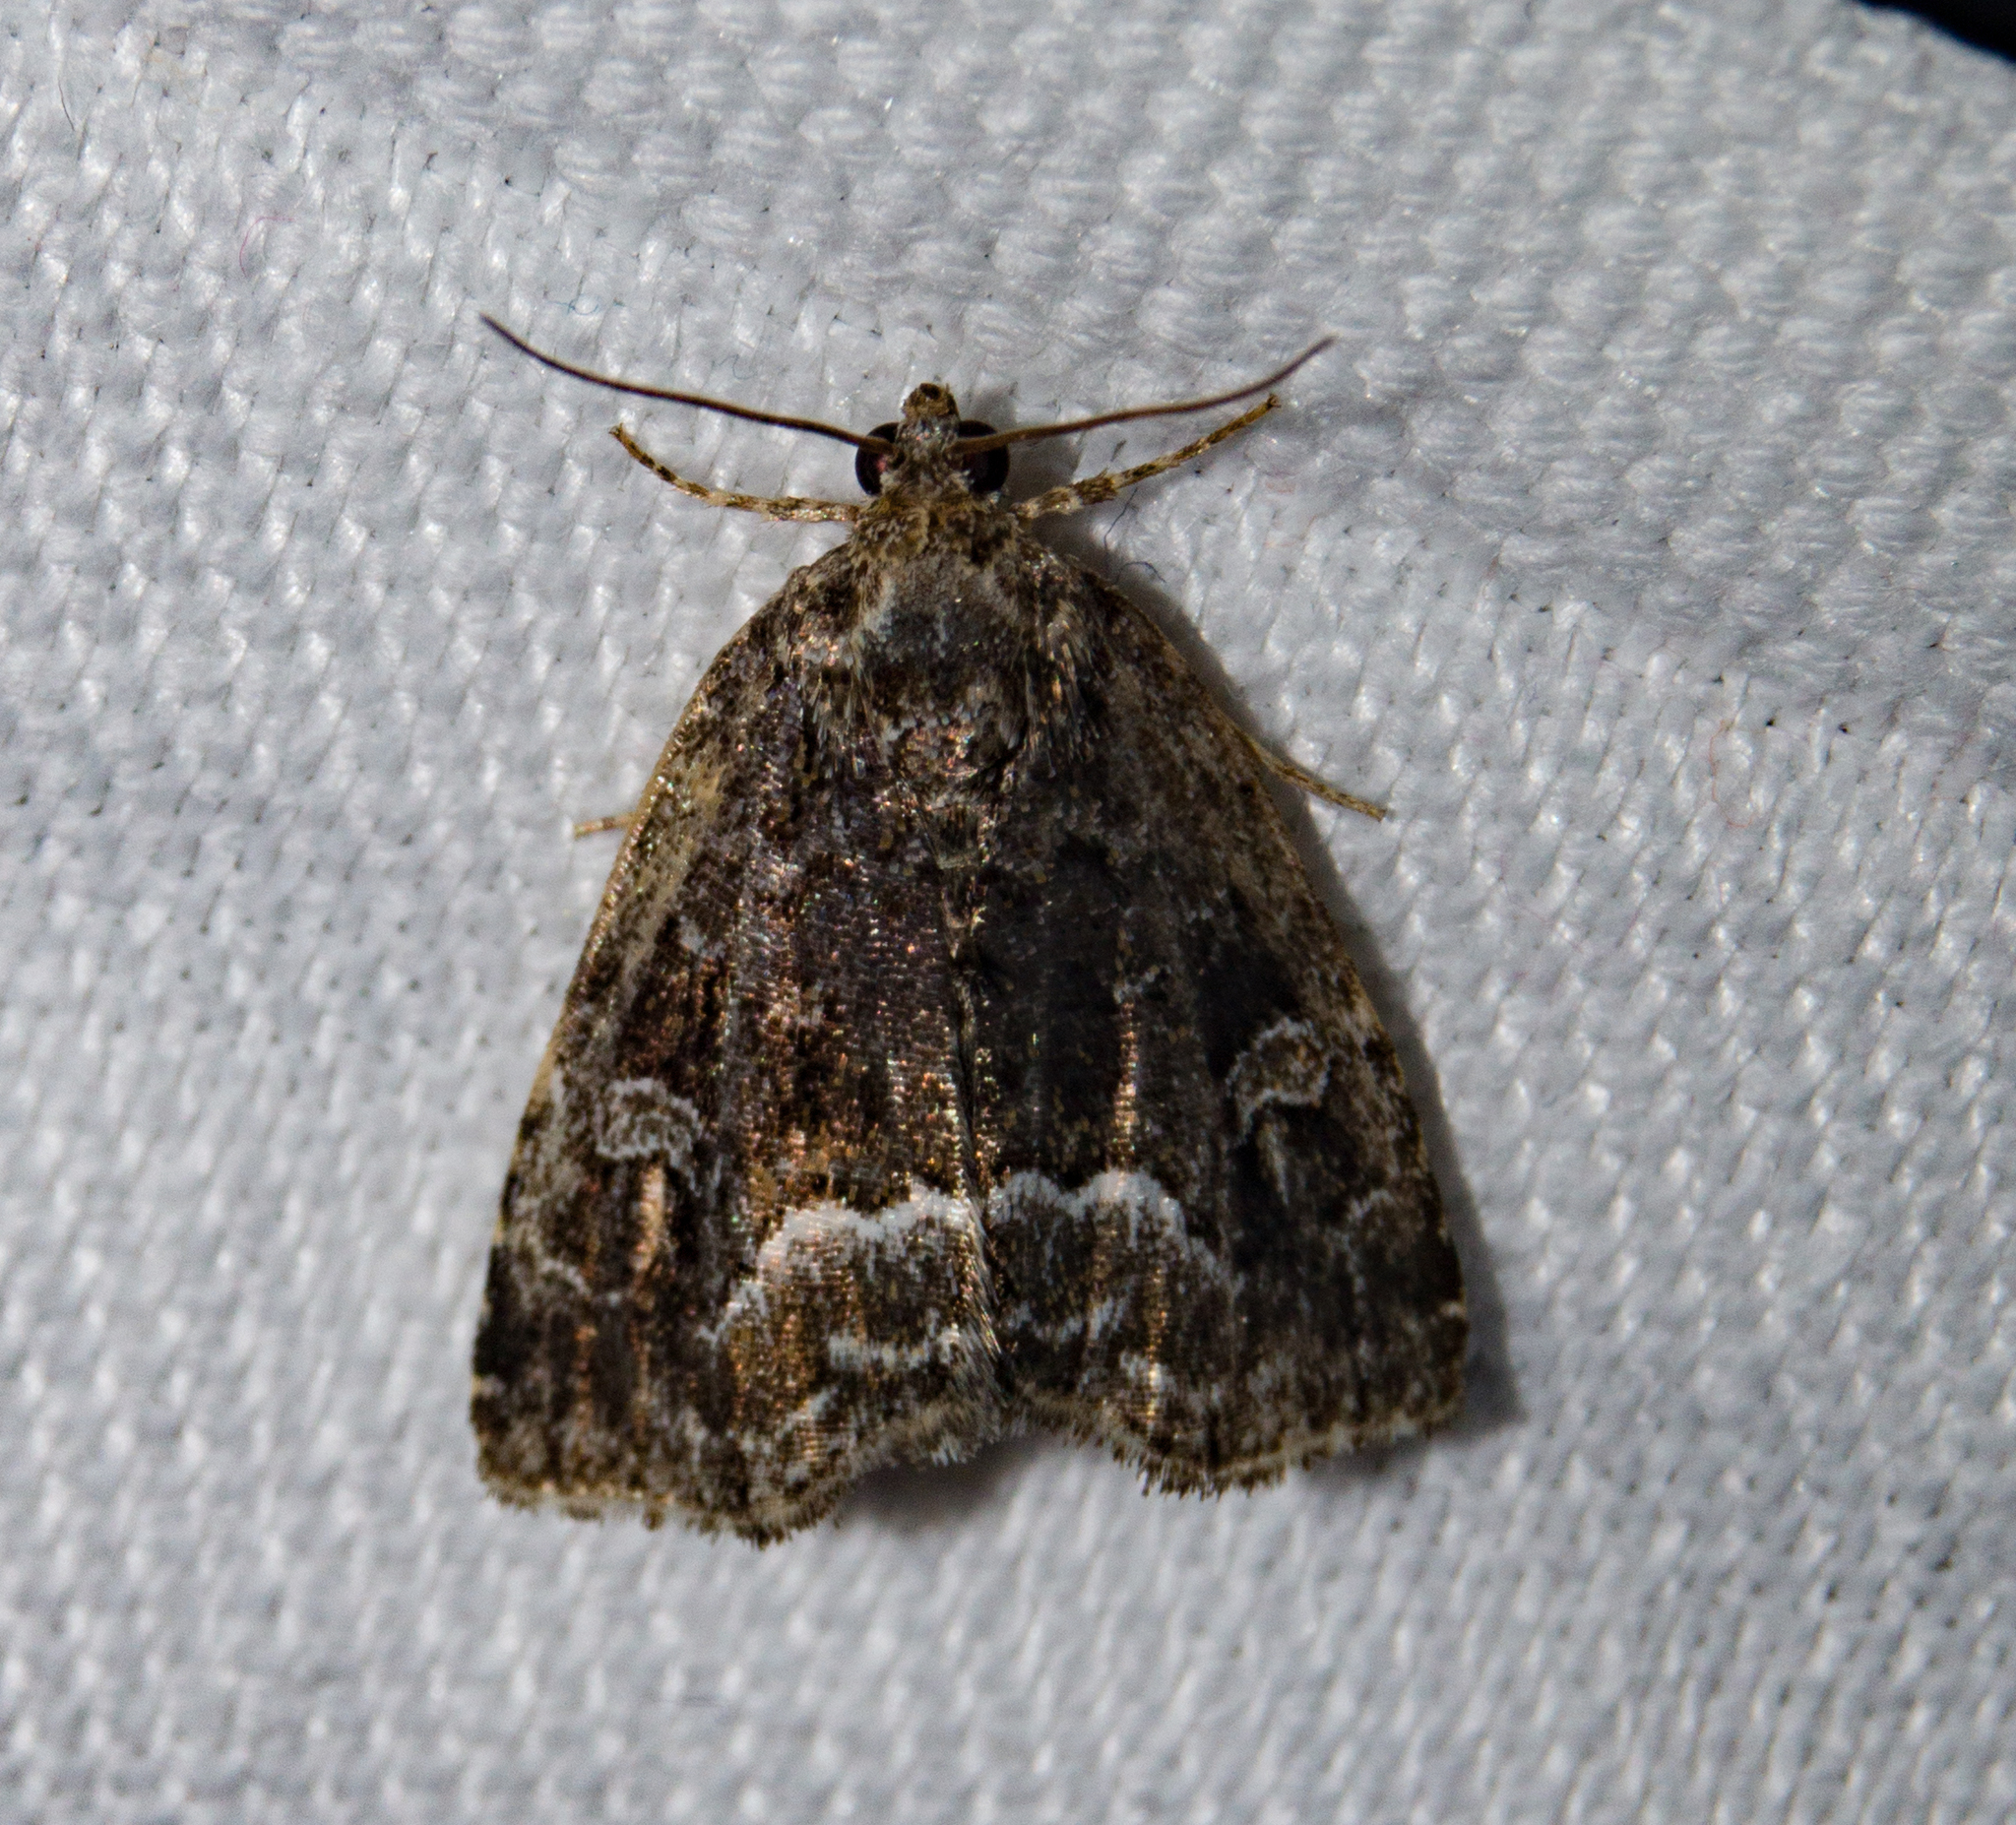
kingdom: Animalia
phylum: Arthropoda
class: Insecta
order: Lepidoptera
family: Noctuidae
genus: Deltote
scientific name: Deltote pygarga
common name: Marbled white spot
